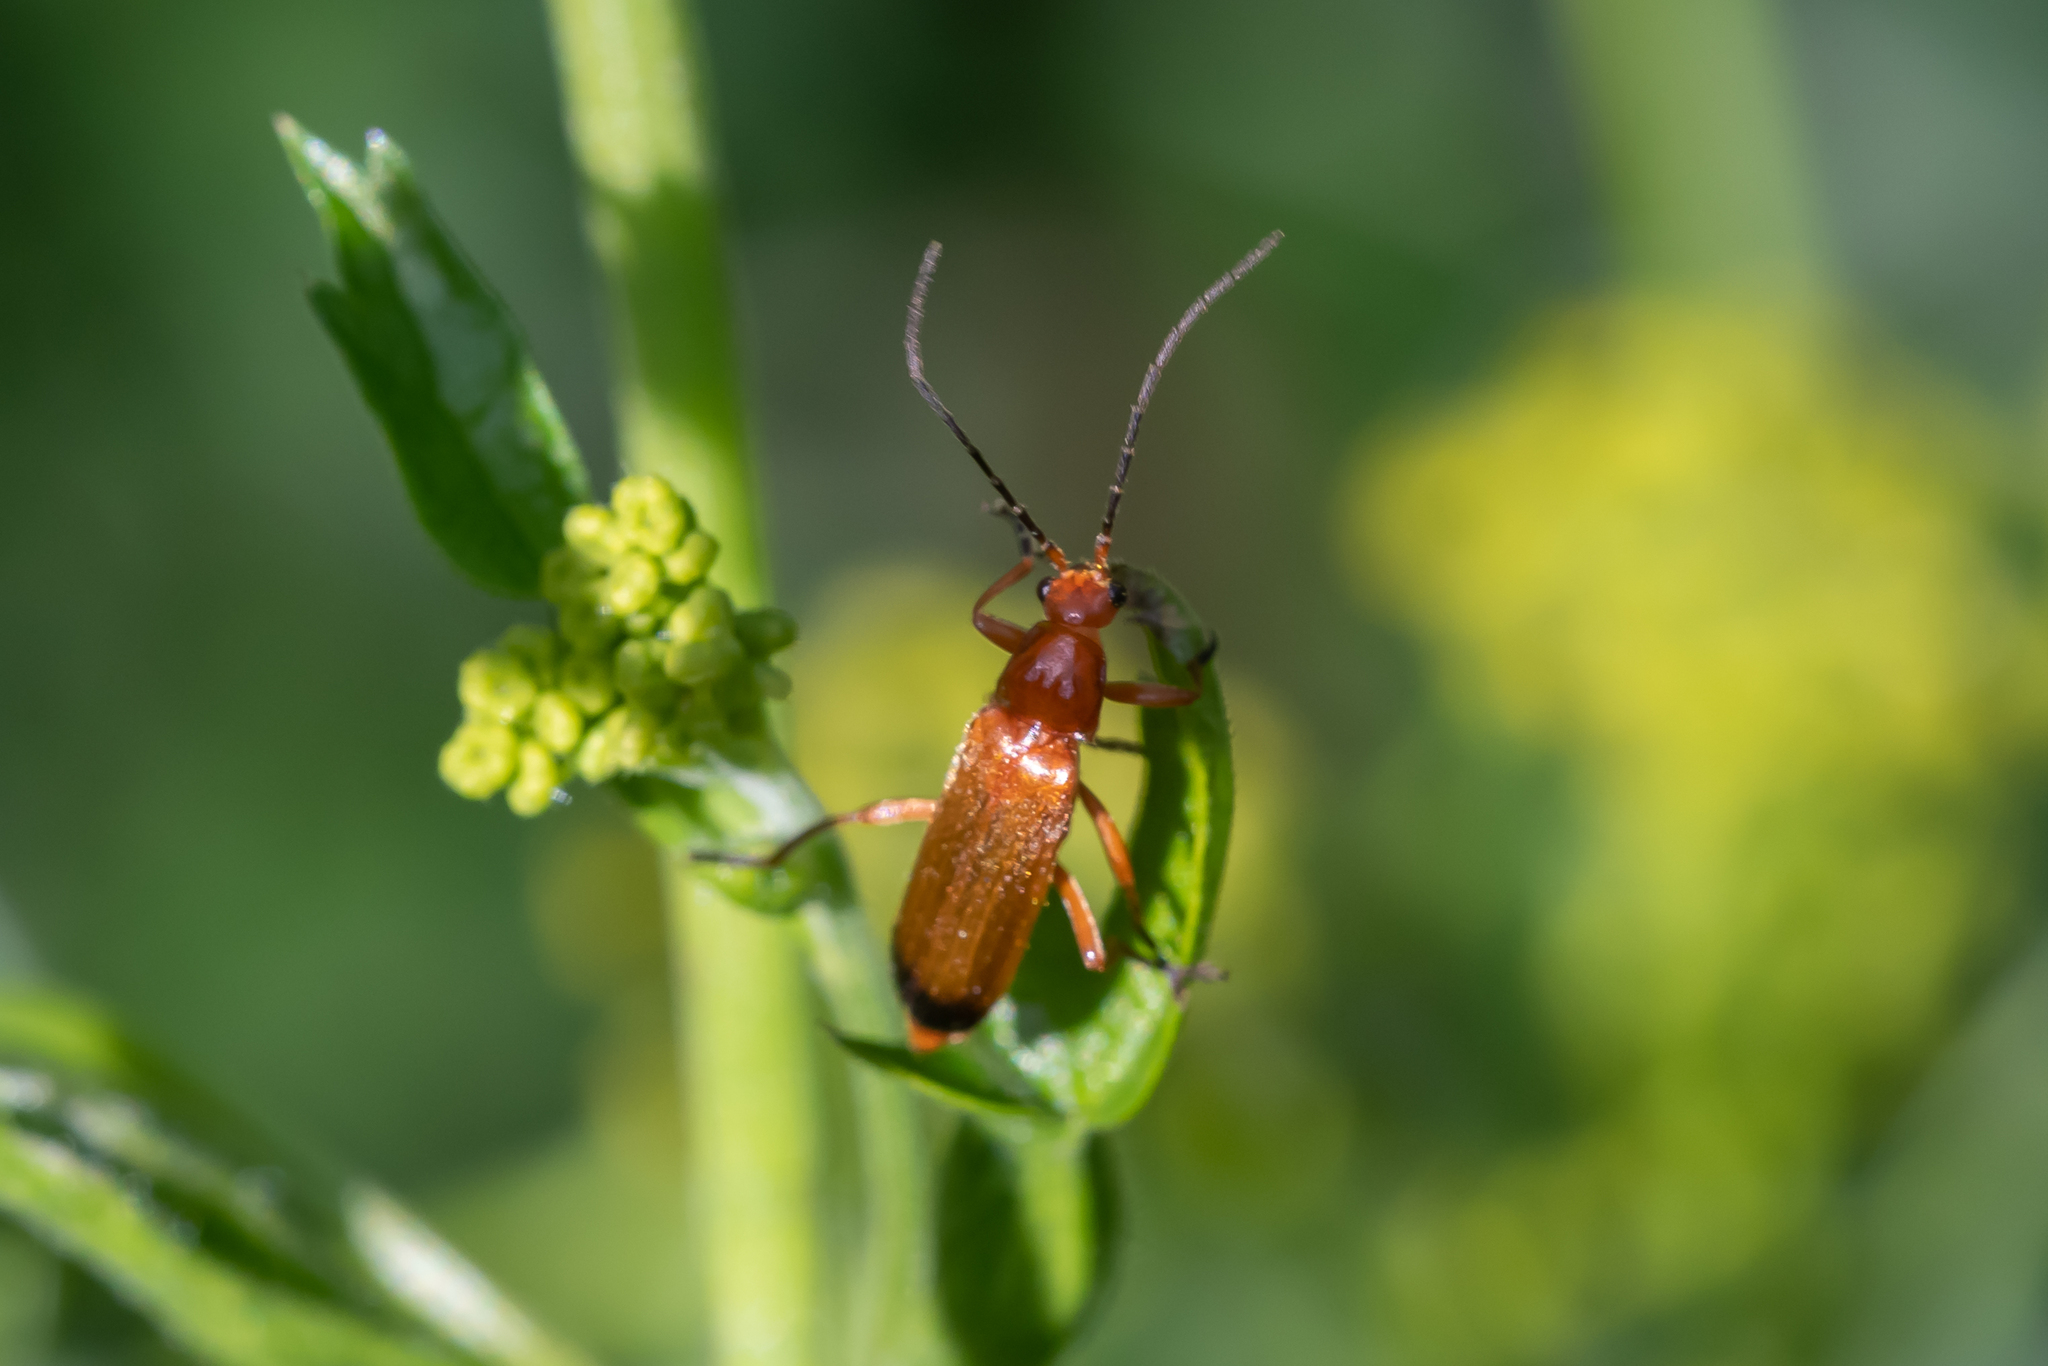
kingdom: Animalia
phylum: Arthropoda
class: Insecta
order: Coleoptera
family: Cantharidae
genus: Rhagonycha
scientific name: Rhagonycha fulva
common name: Common red soldier beetle
